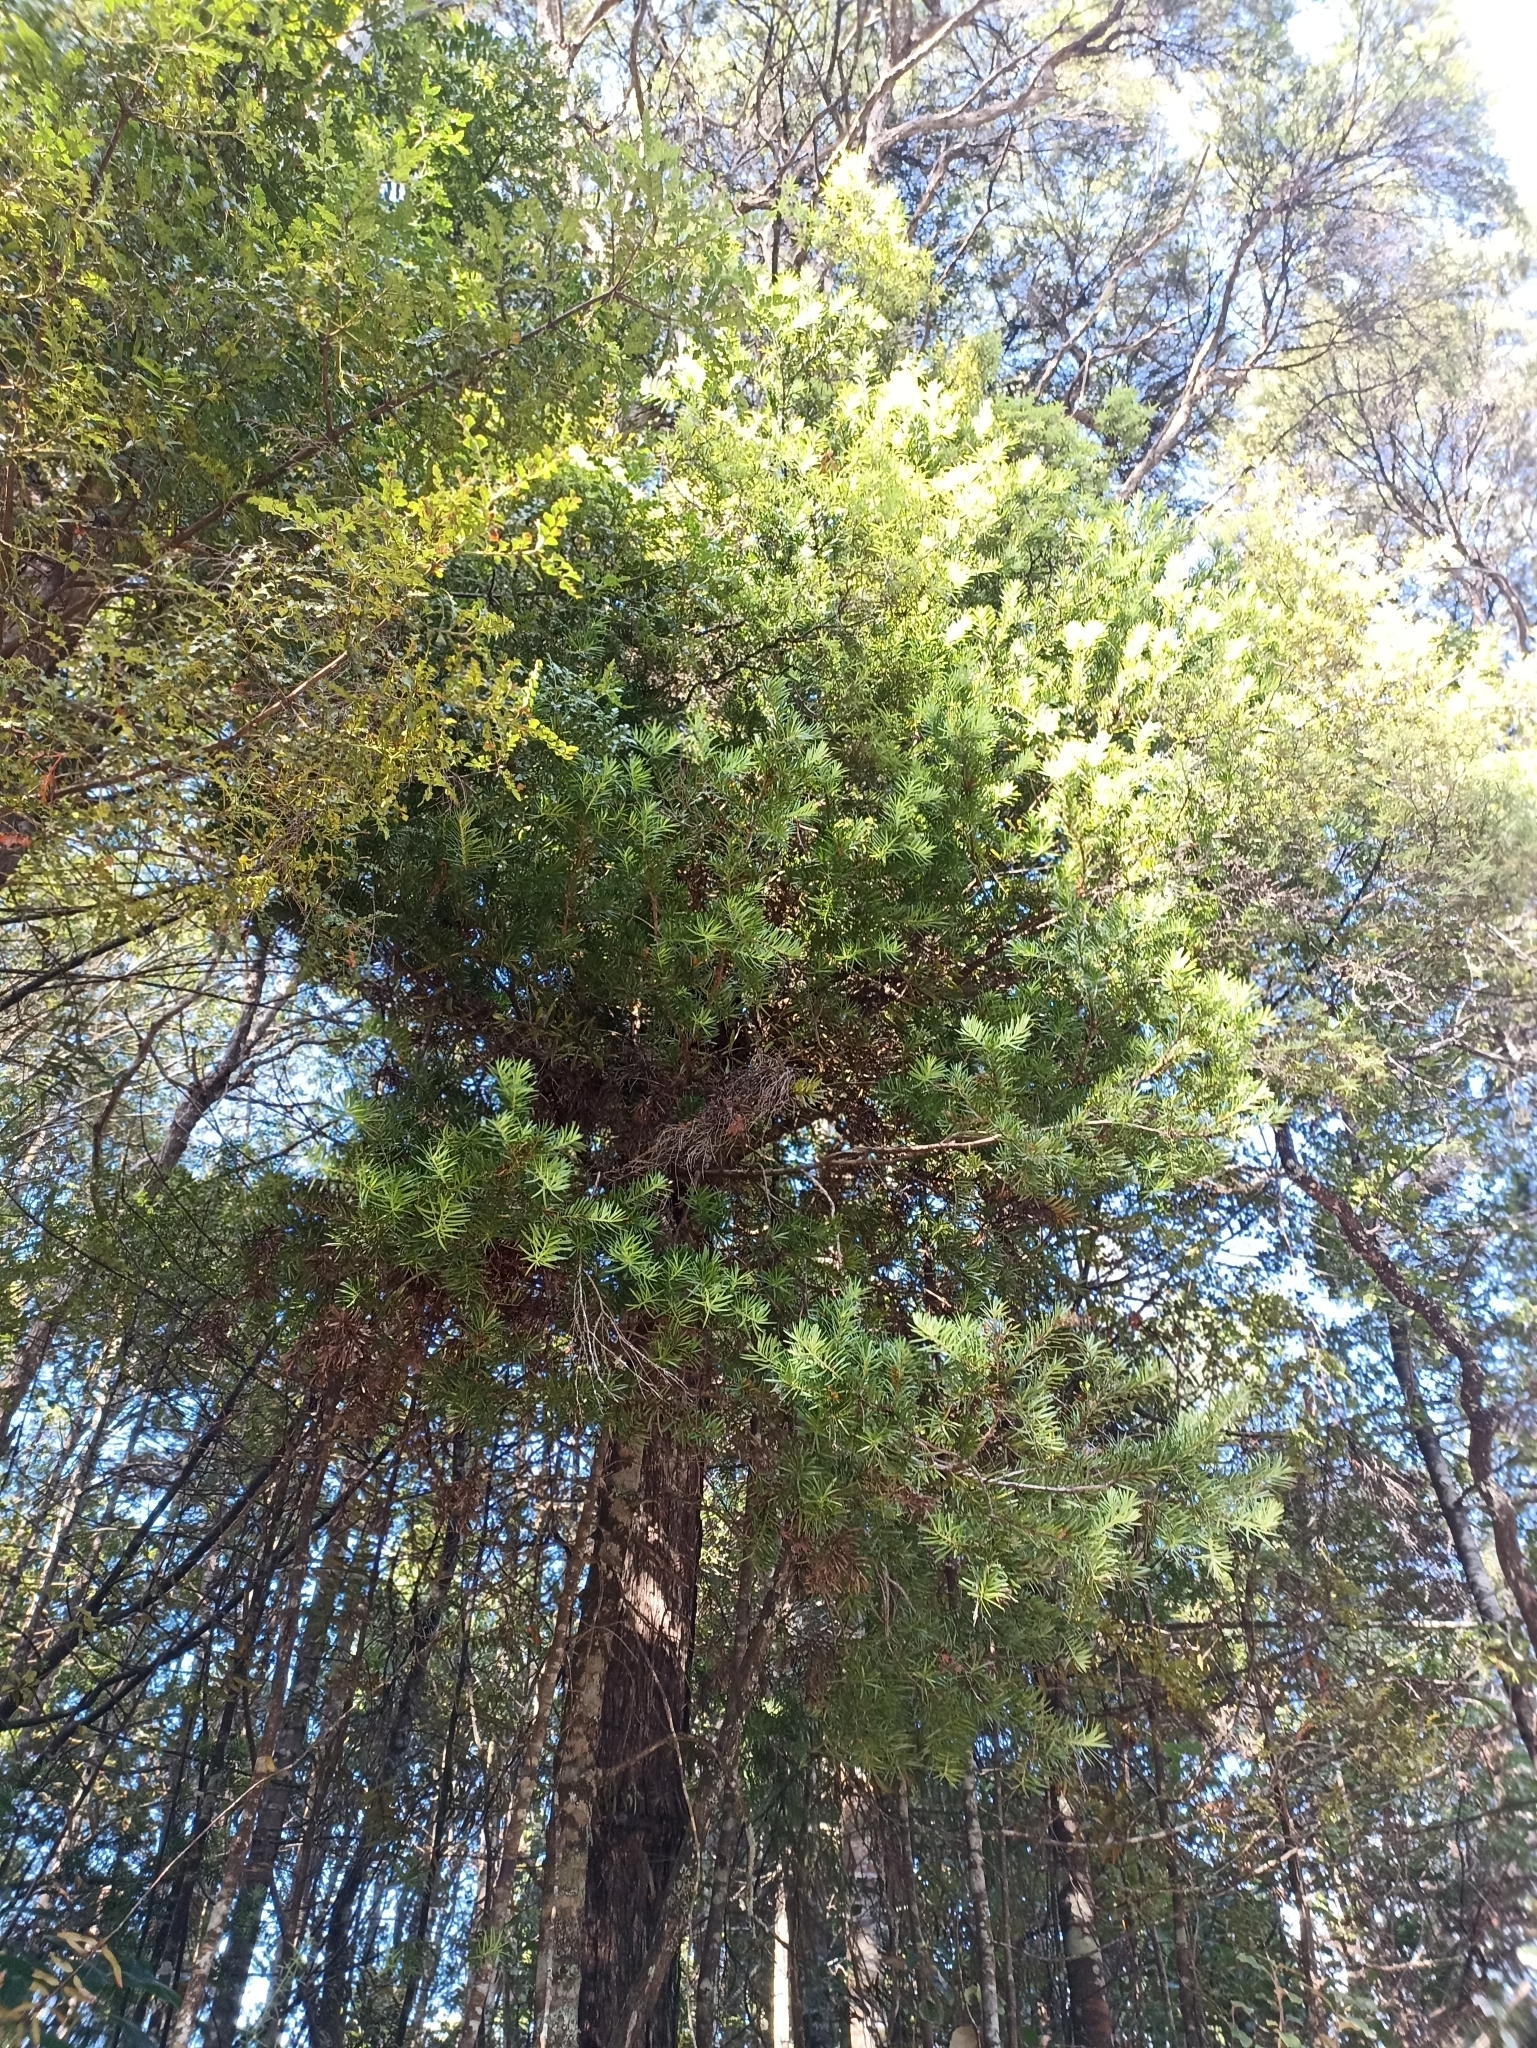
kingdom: Plantae
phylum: Tracheophyta
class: Pinopsida
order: Pinales
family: Podocarpaceae
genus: Halocarpus
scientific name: Halocarpus kirkii
